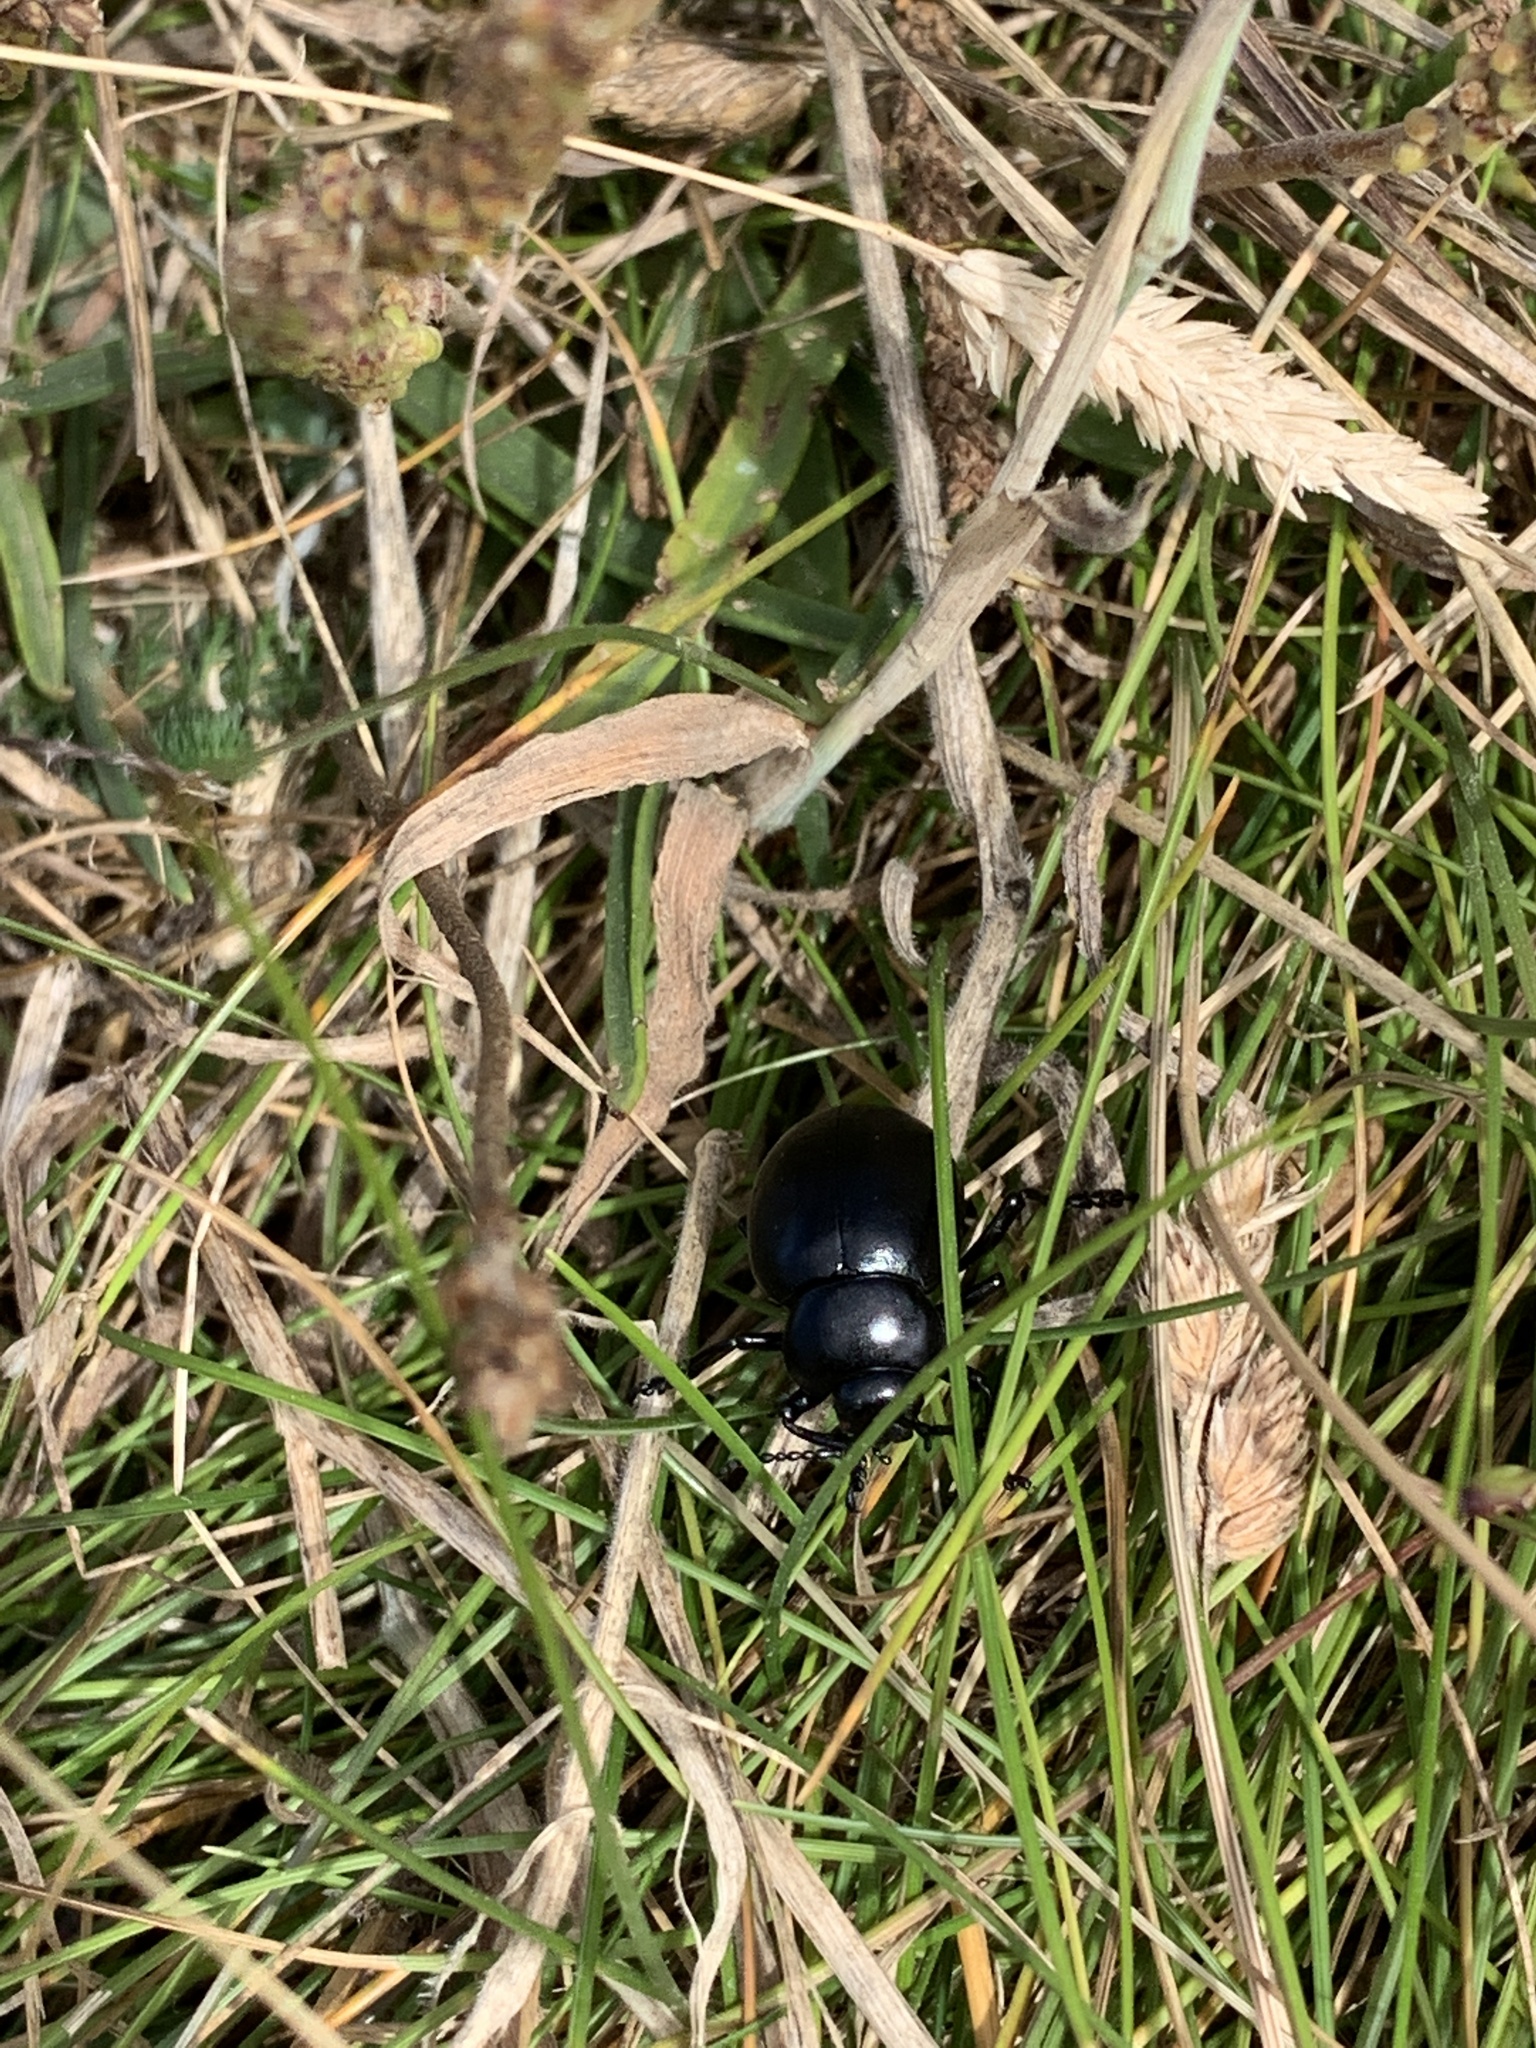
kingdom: Animalia
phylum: Arthropoda
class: Insecta
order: Coleoptera
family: Chrysomelidae
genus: Timarcha
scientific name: Timarcha tenebricosa
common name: Bloody-nosed beetle
